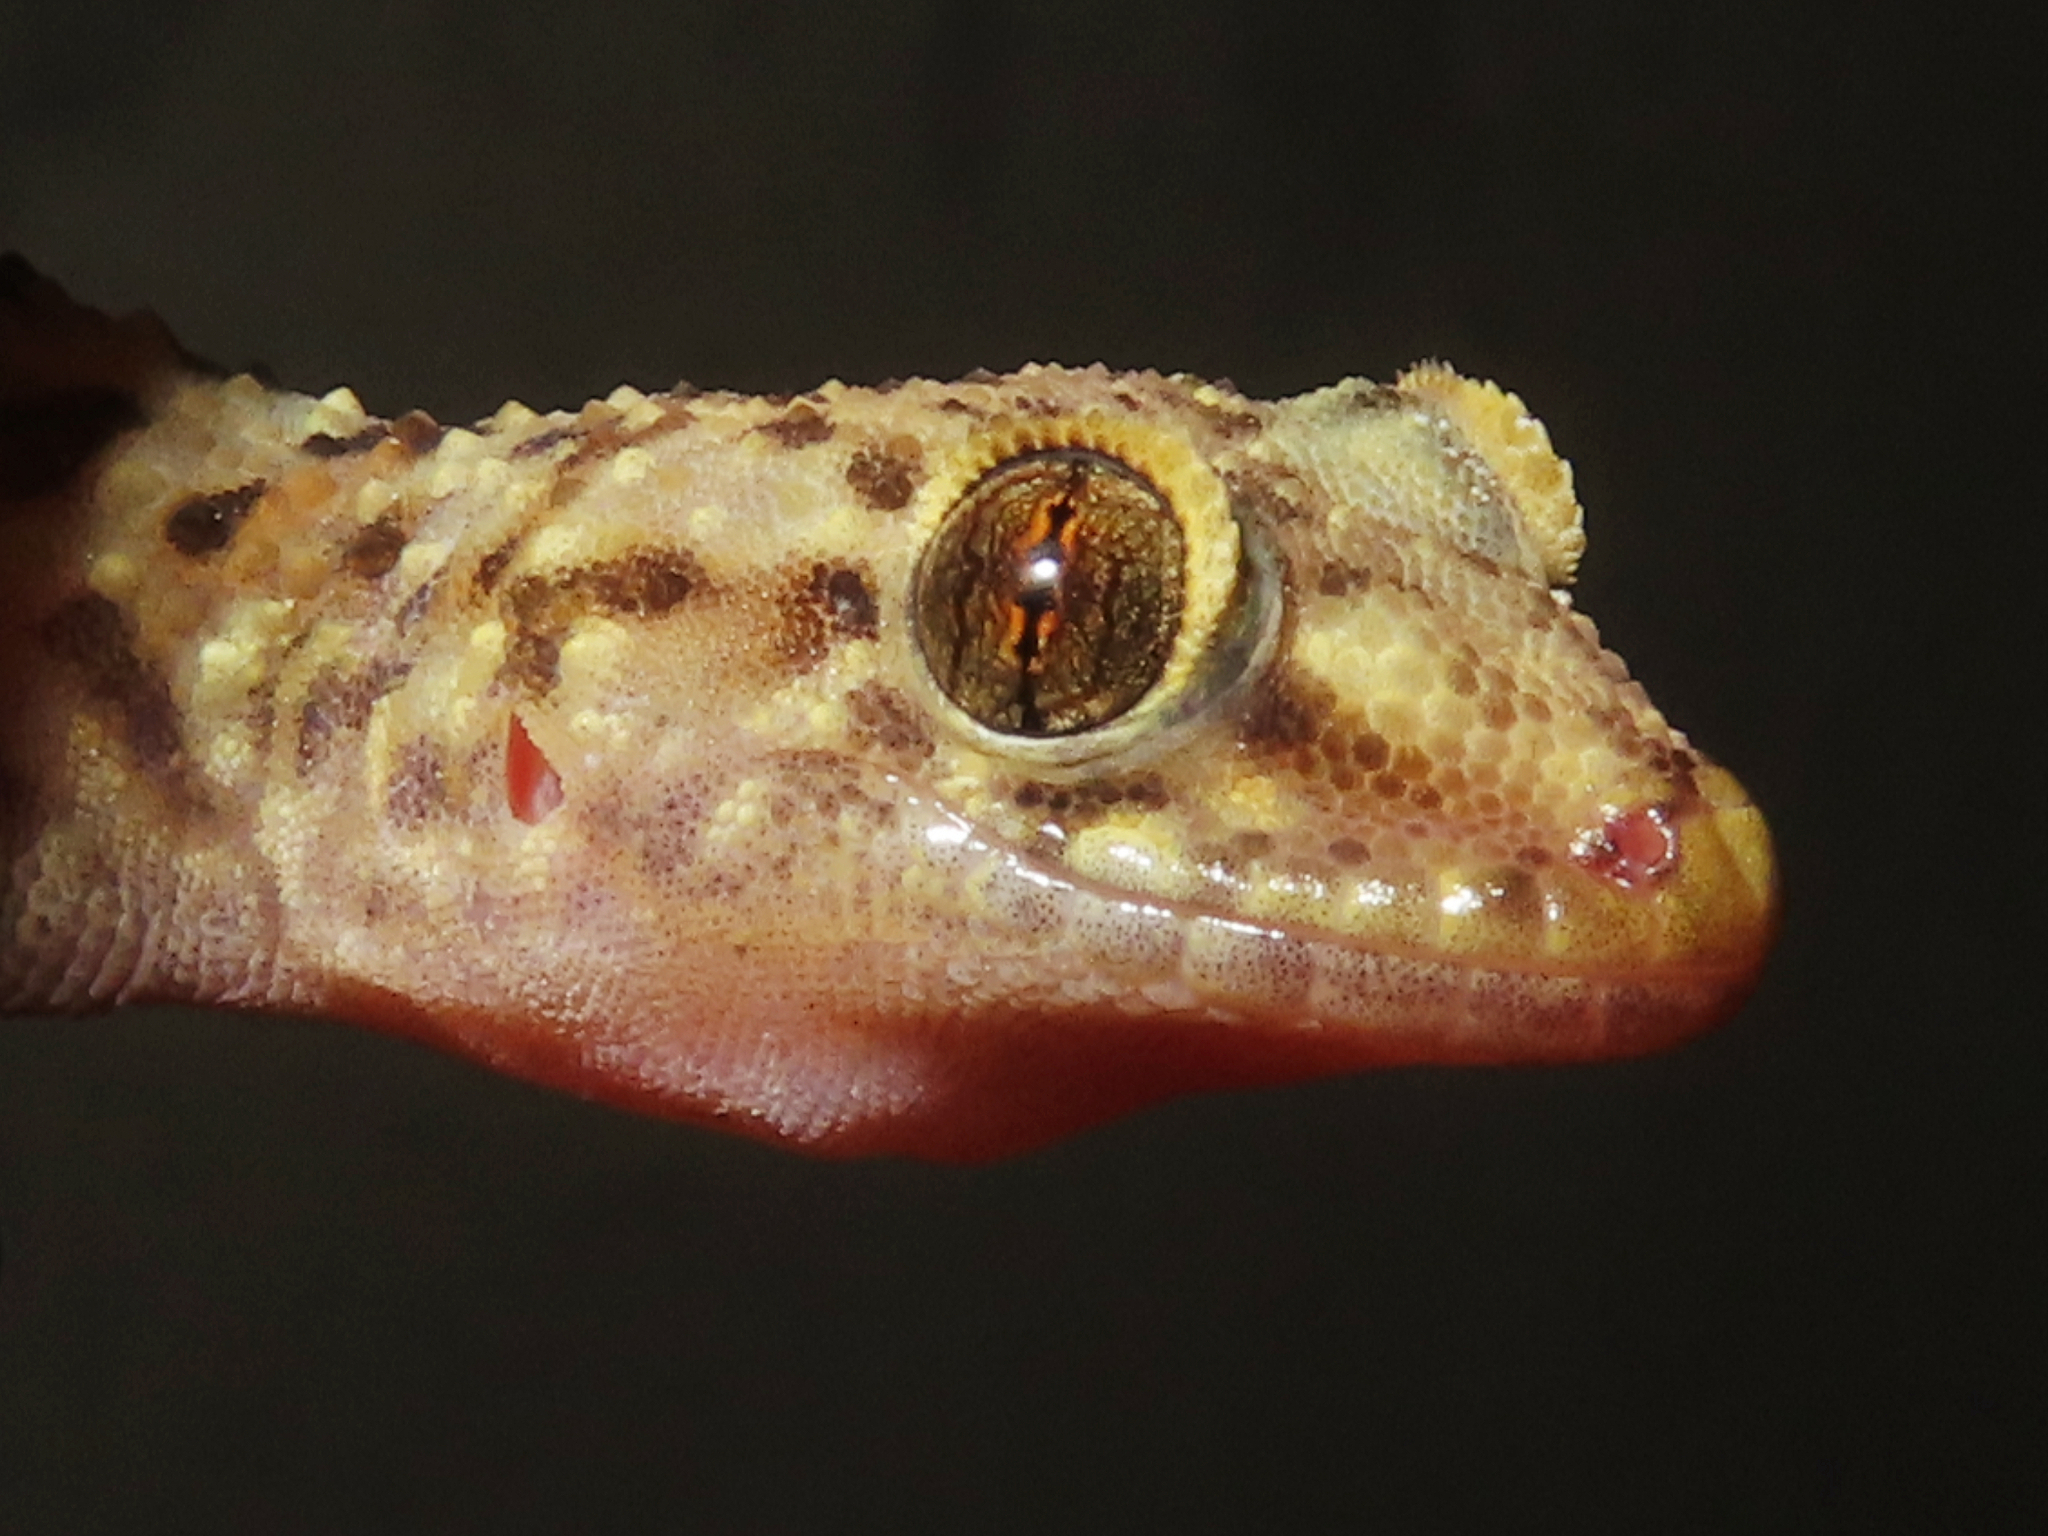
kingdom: Animalia
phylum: Chordata
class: Squamata
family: Gekkonidae
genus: Hemidactylus
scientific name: Hemidactylus turcicus
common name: Turkish gecko
